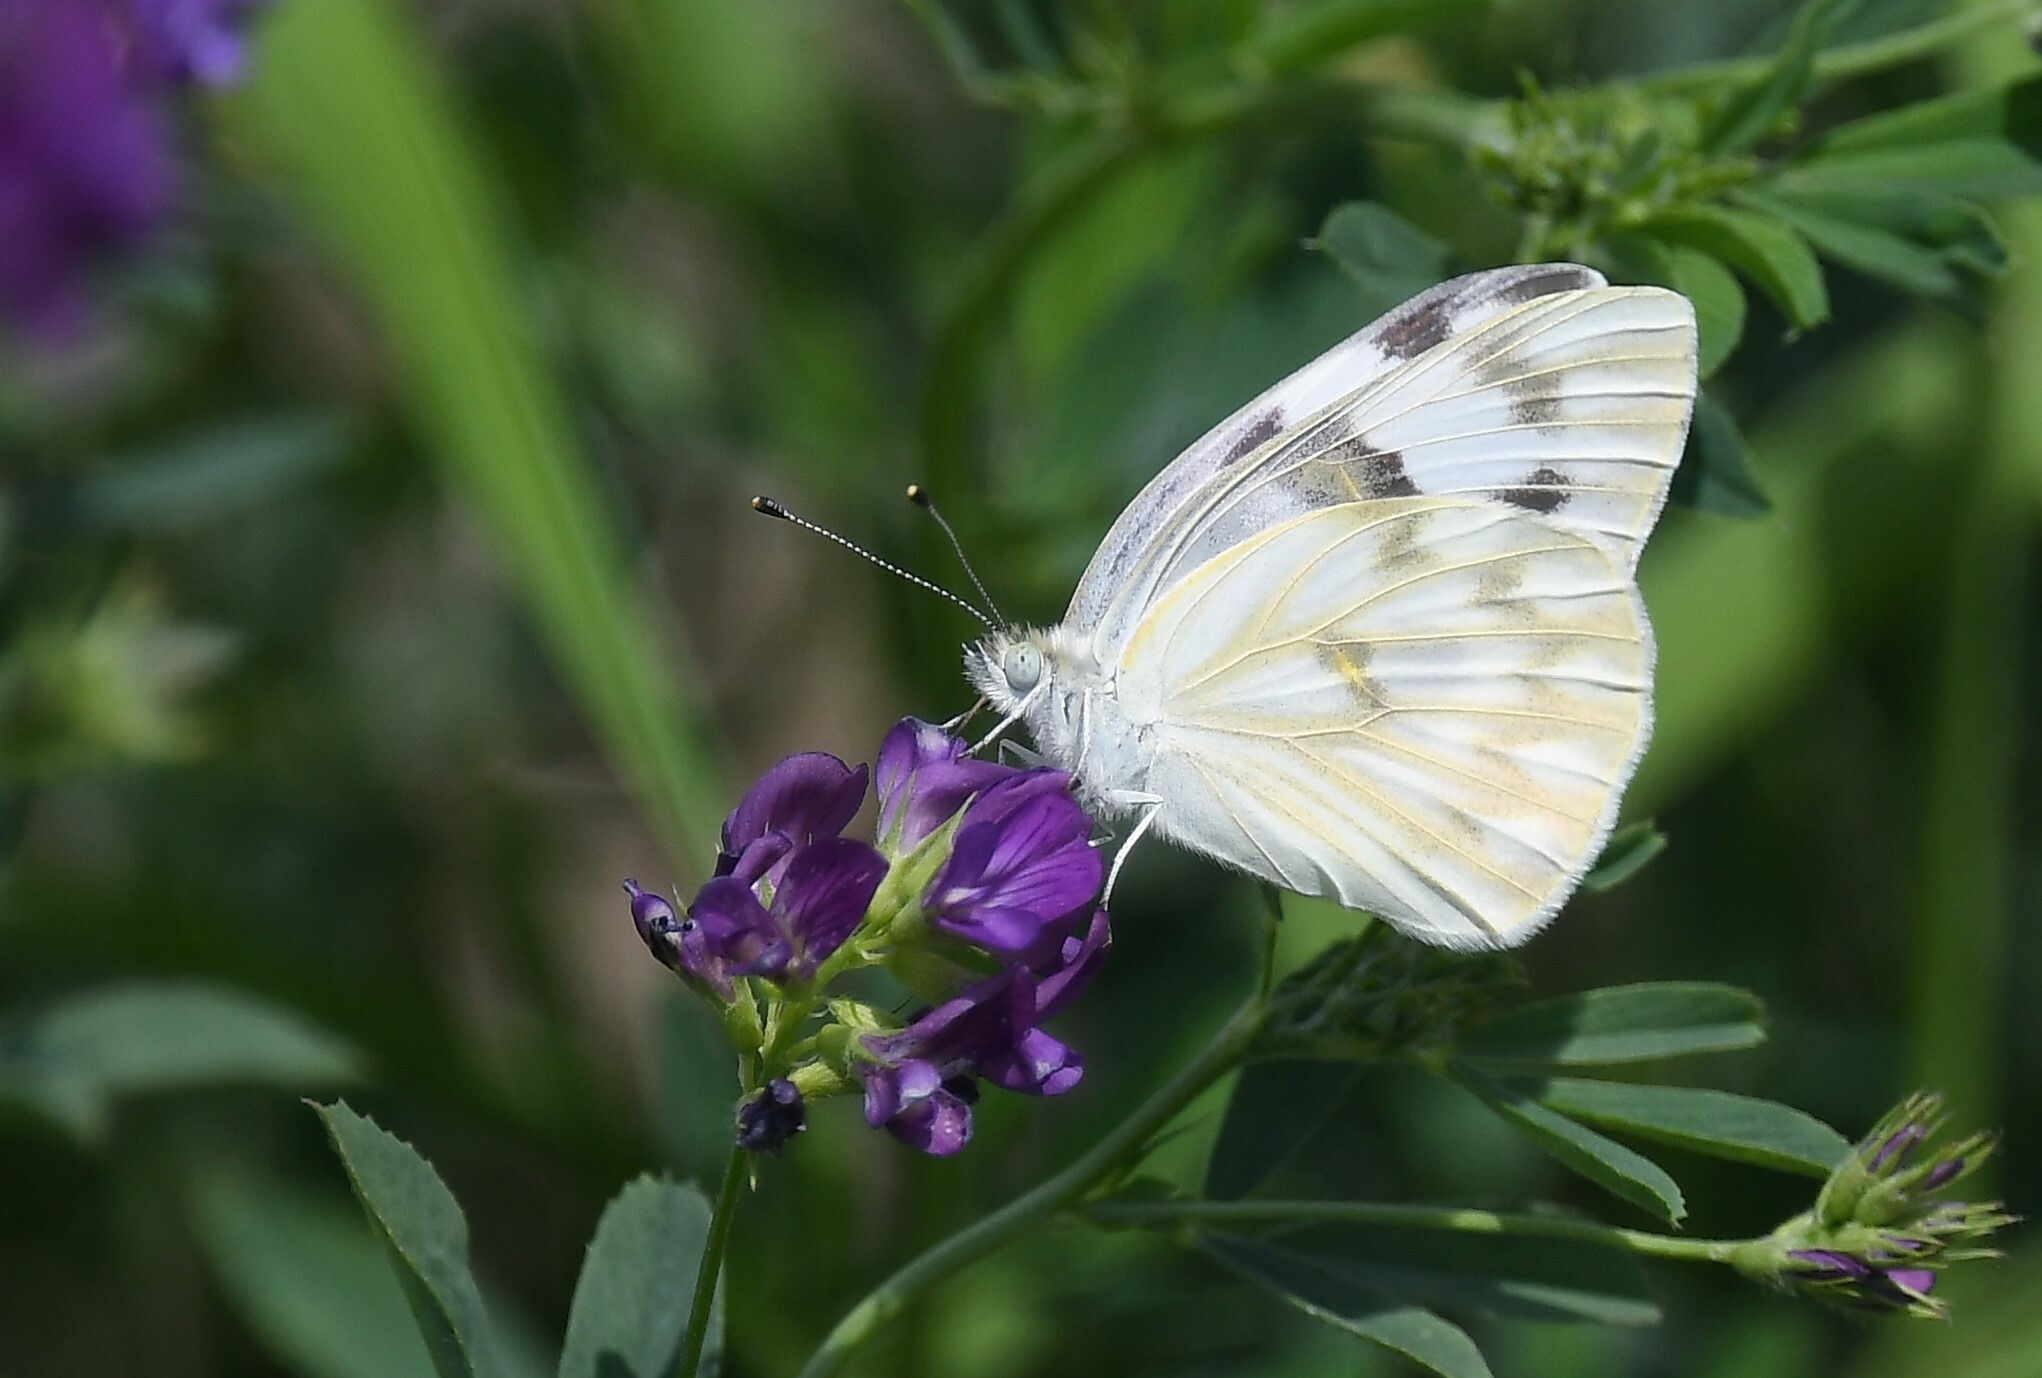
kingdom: Animalia
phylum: Arthropoda
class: Insecta
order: Lepidoptera
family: Pieridae
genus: Pontia
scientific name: Pontia protodice
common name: Checkered white
